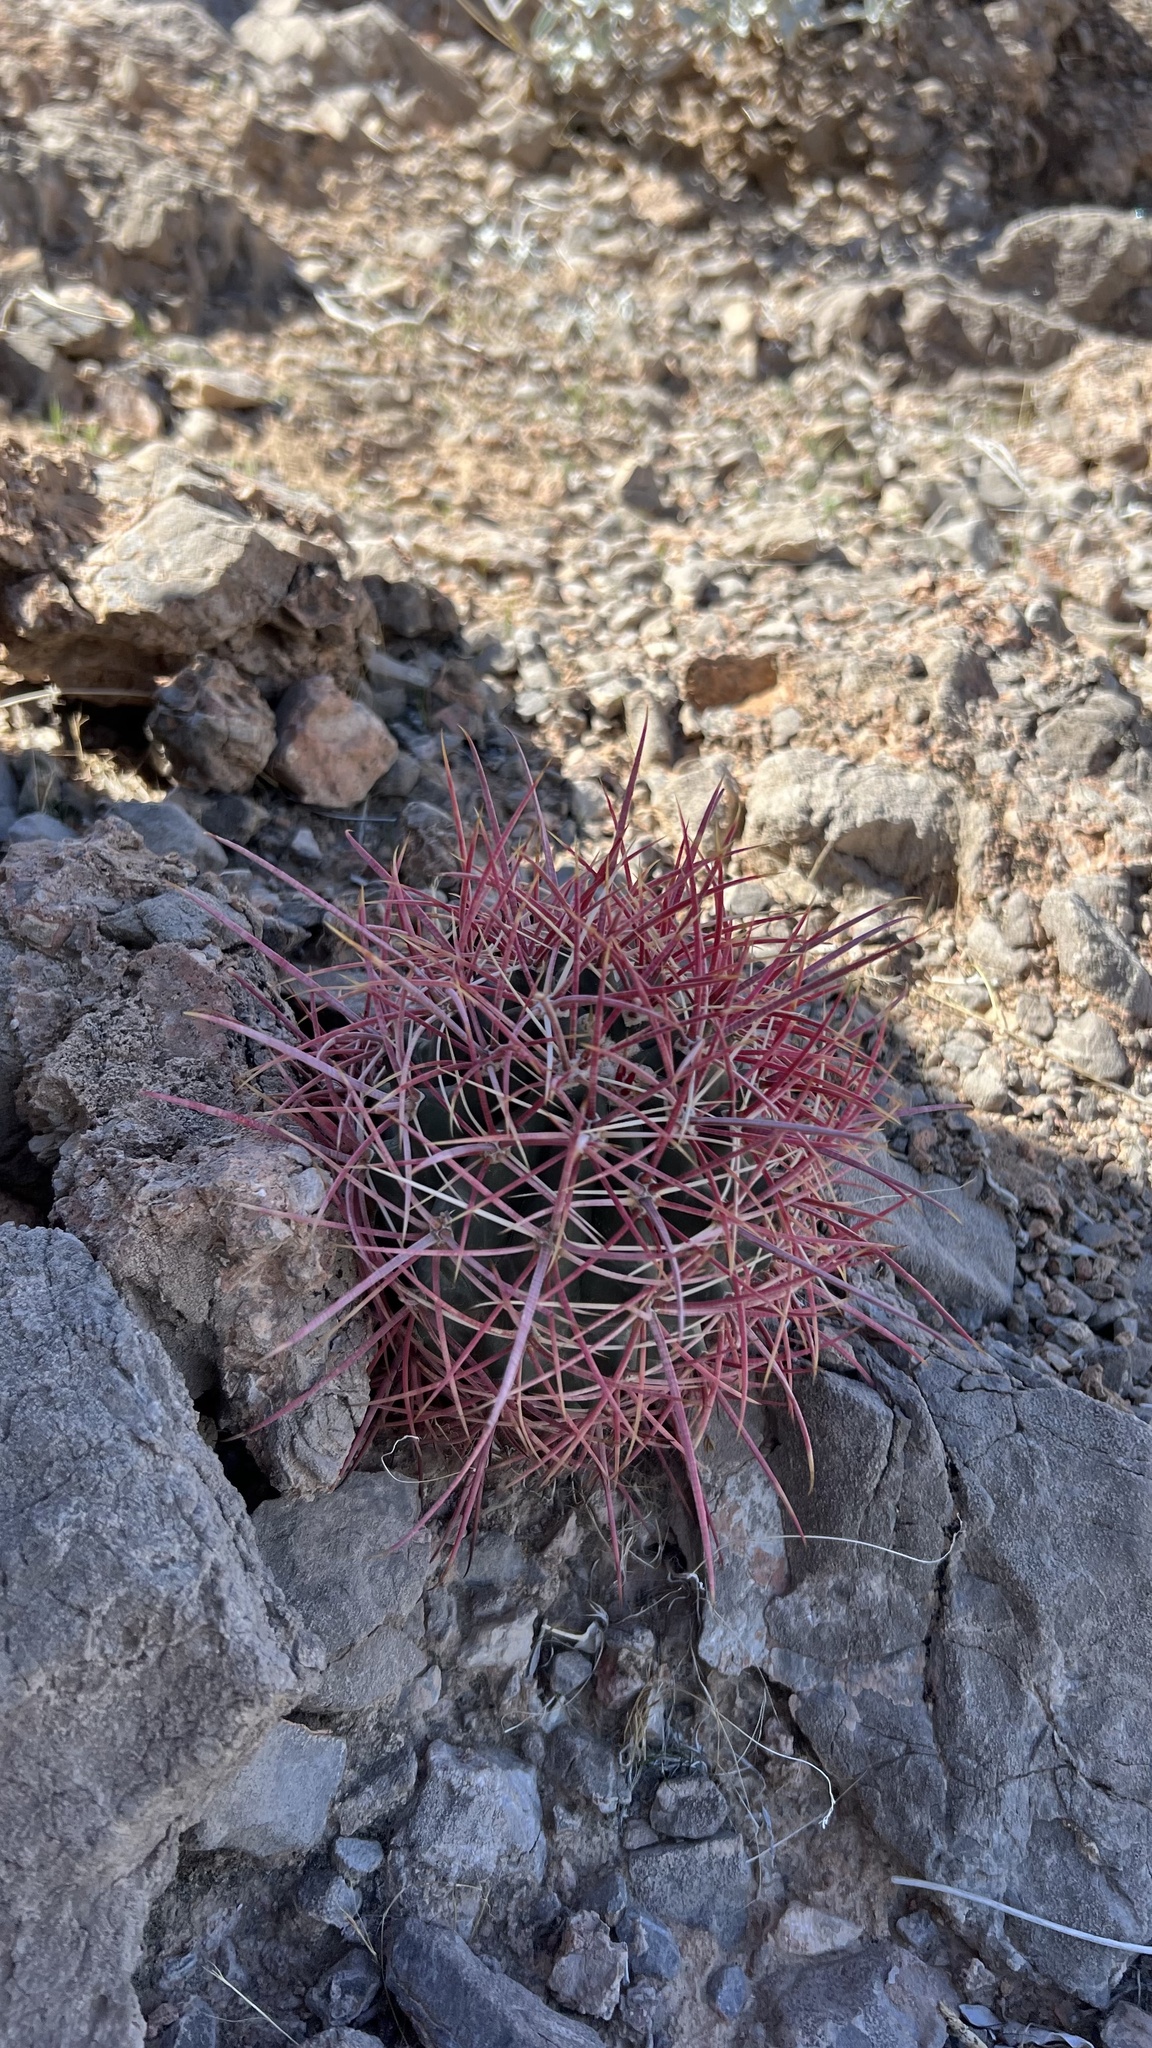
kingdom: Plantae
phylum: Tracheophyta
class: Magnoliopsida
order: Caryophyllales
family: Cactaceae
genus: Ferocactus
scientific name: Ferocactus cylindraceus
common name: California barrel cactus
